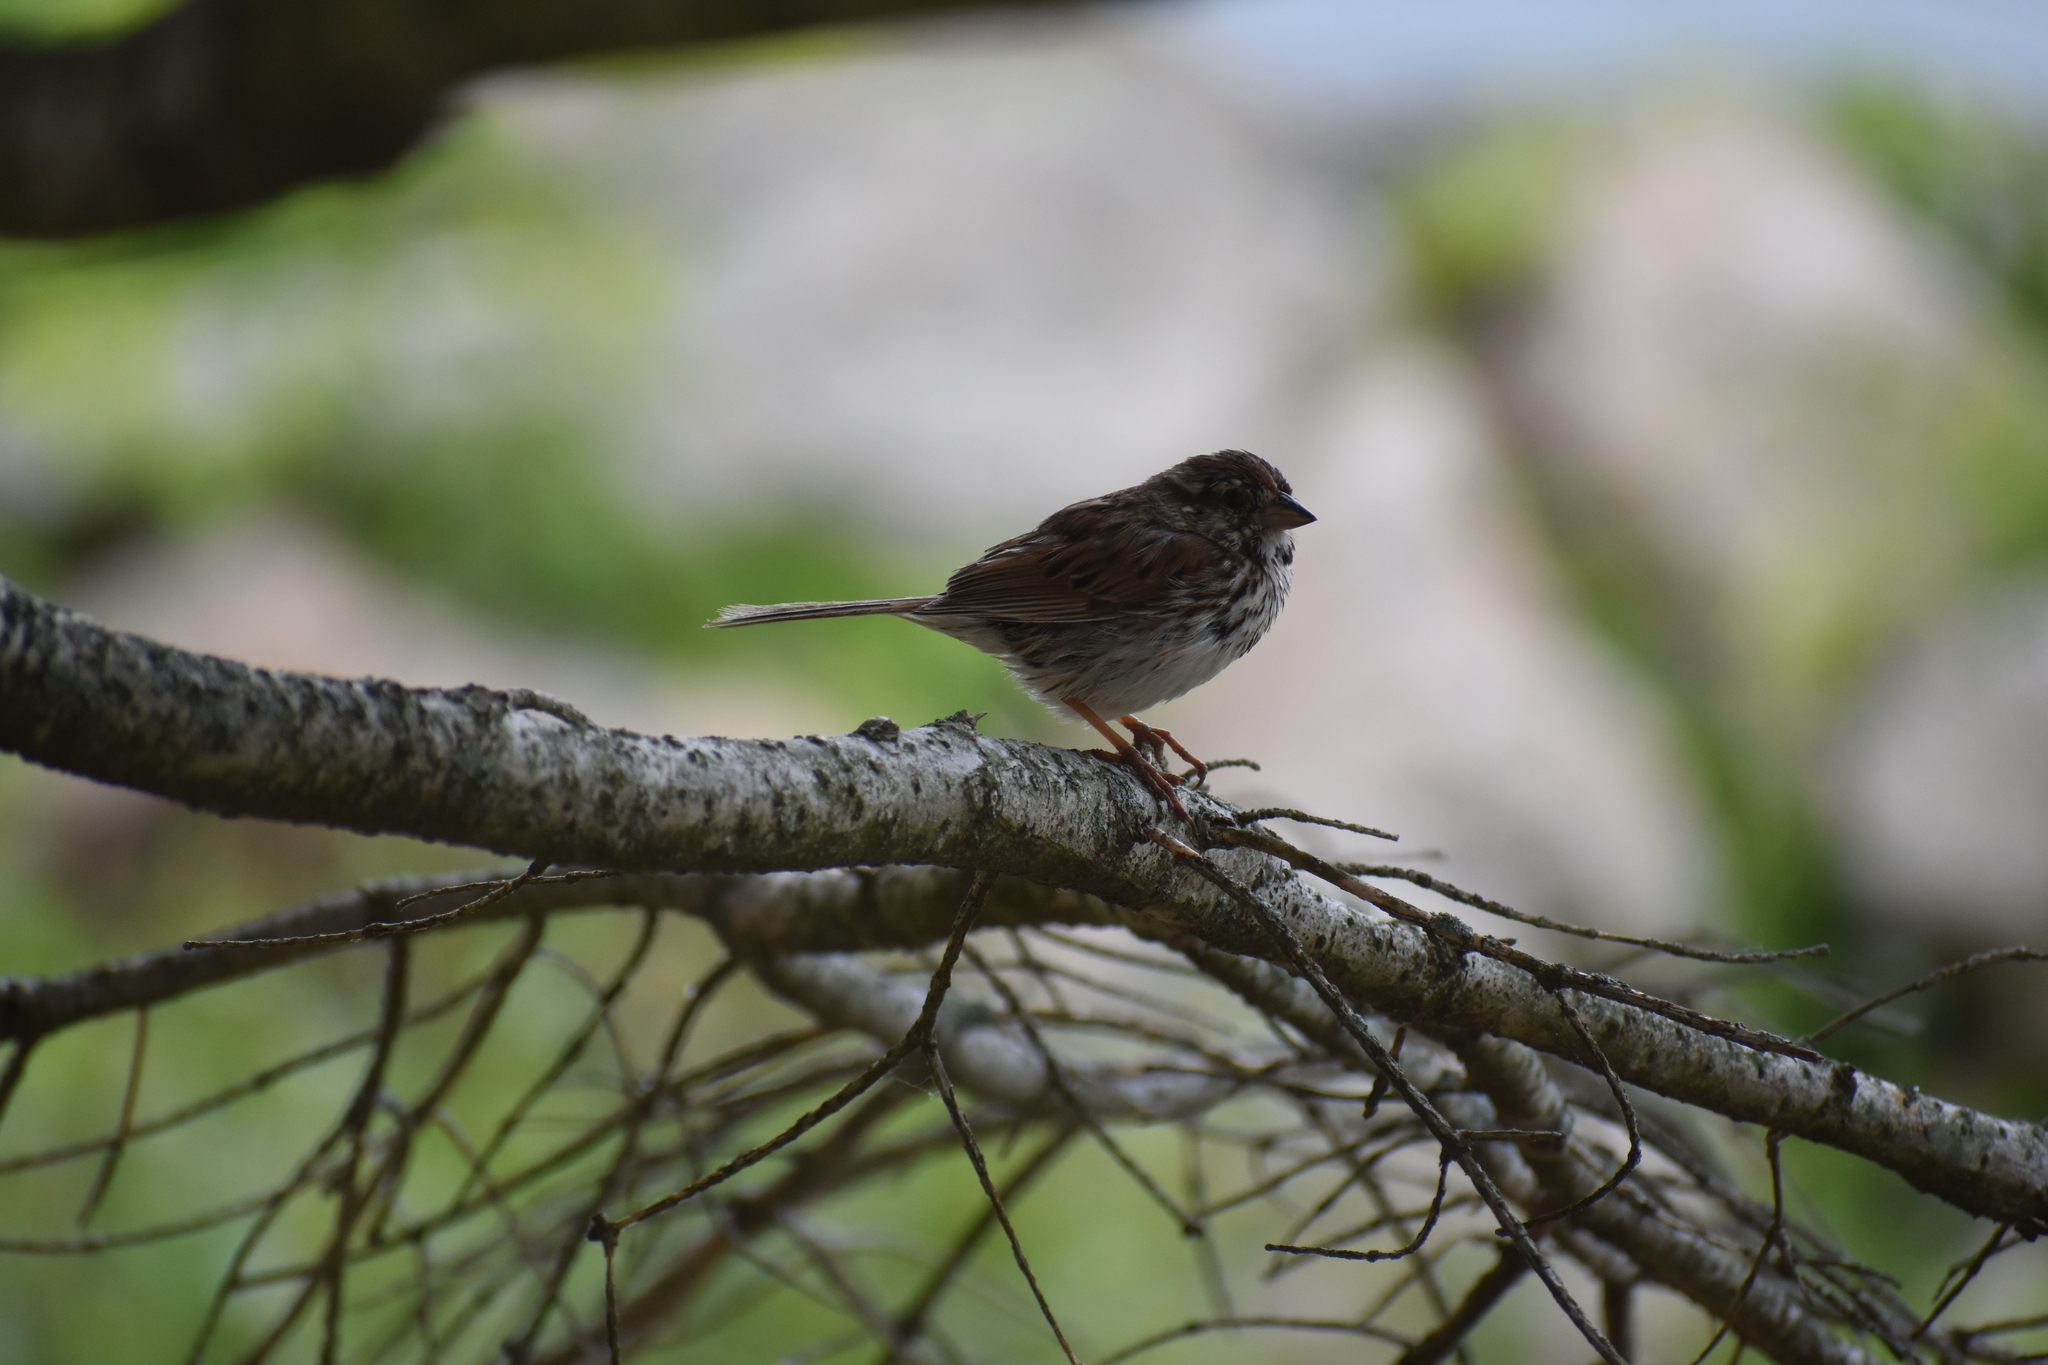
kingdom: Animalia
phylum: Chordata
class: Aves
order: Passeriformes
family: Passerellidae
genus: Melospiza
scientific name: Melospiza melodia
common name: Song sparrow
